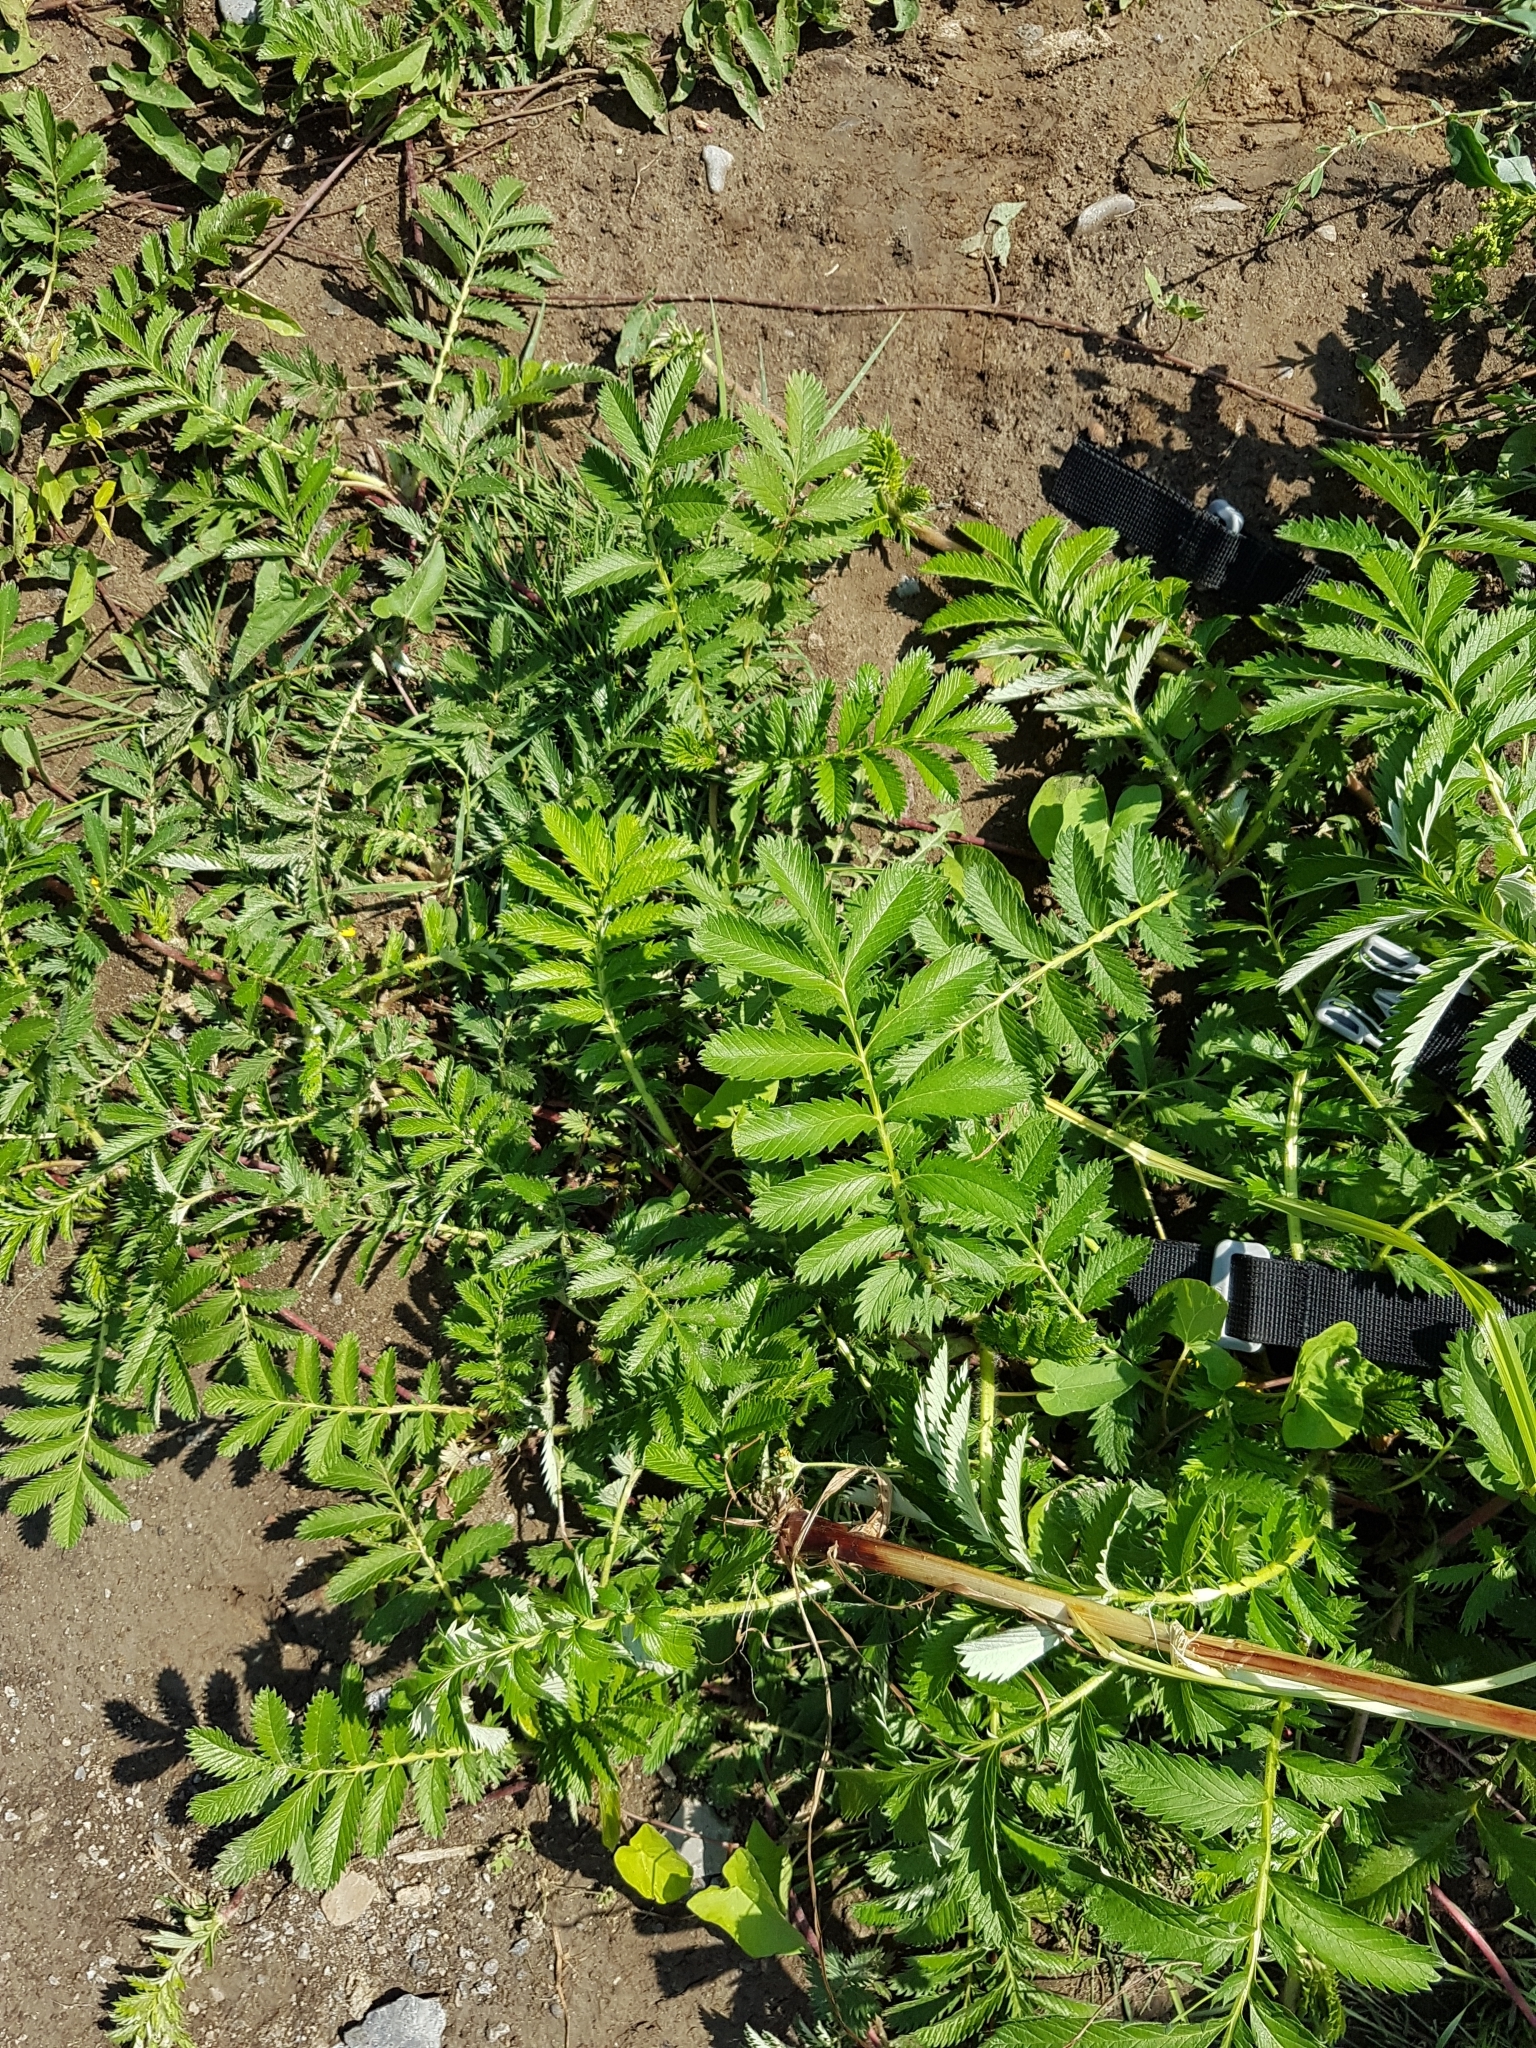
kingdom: Plantae
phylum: Tracheophyta
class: Magnoliopsida
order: Rosales
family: Rosaceae
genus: Argentina
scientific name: Argentina anserina
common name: Common silverweed
